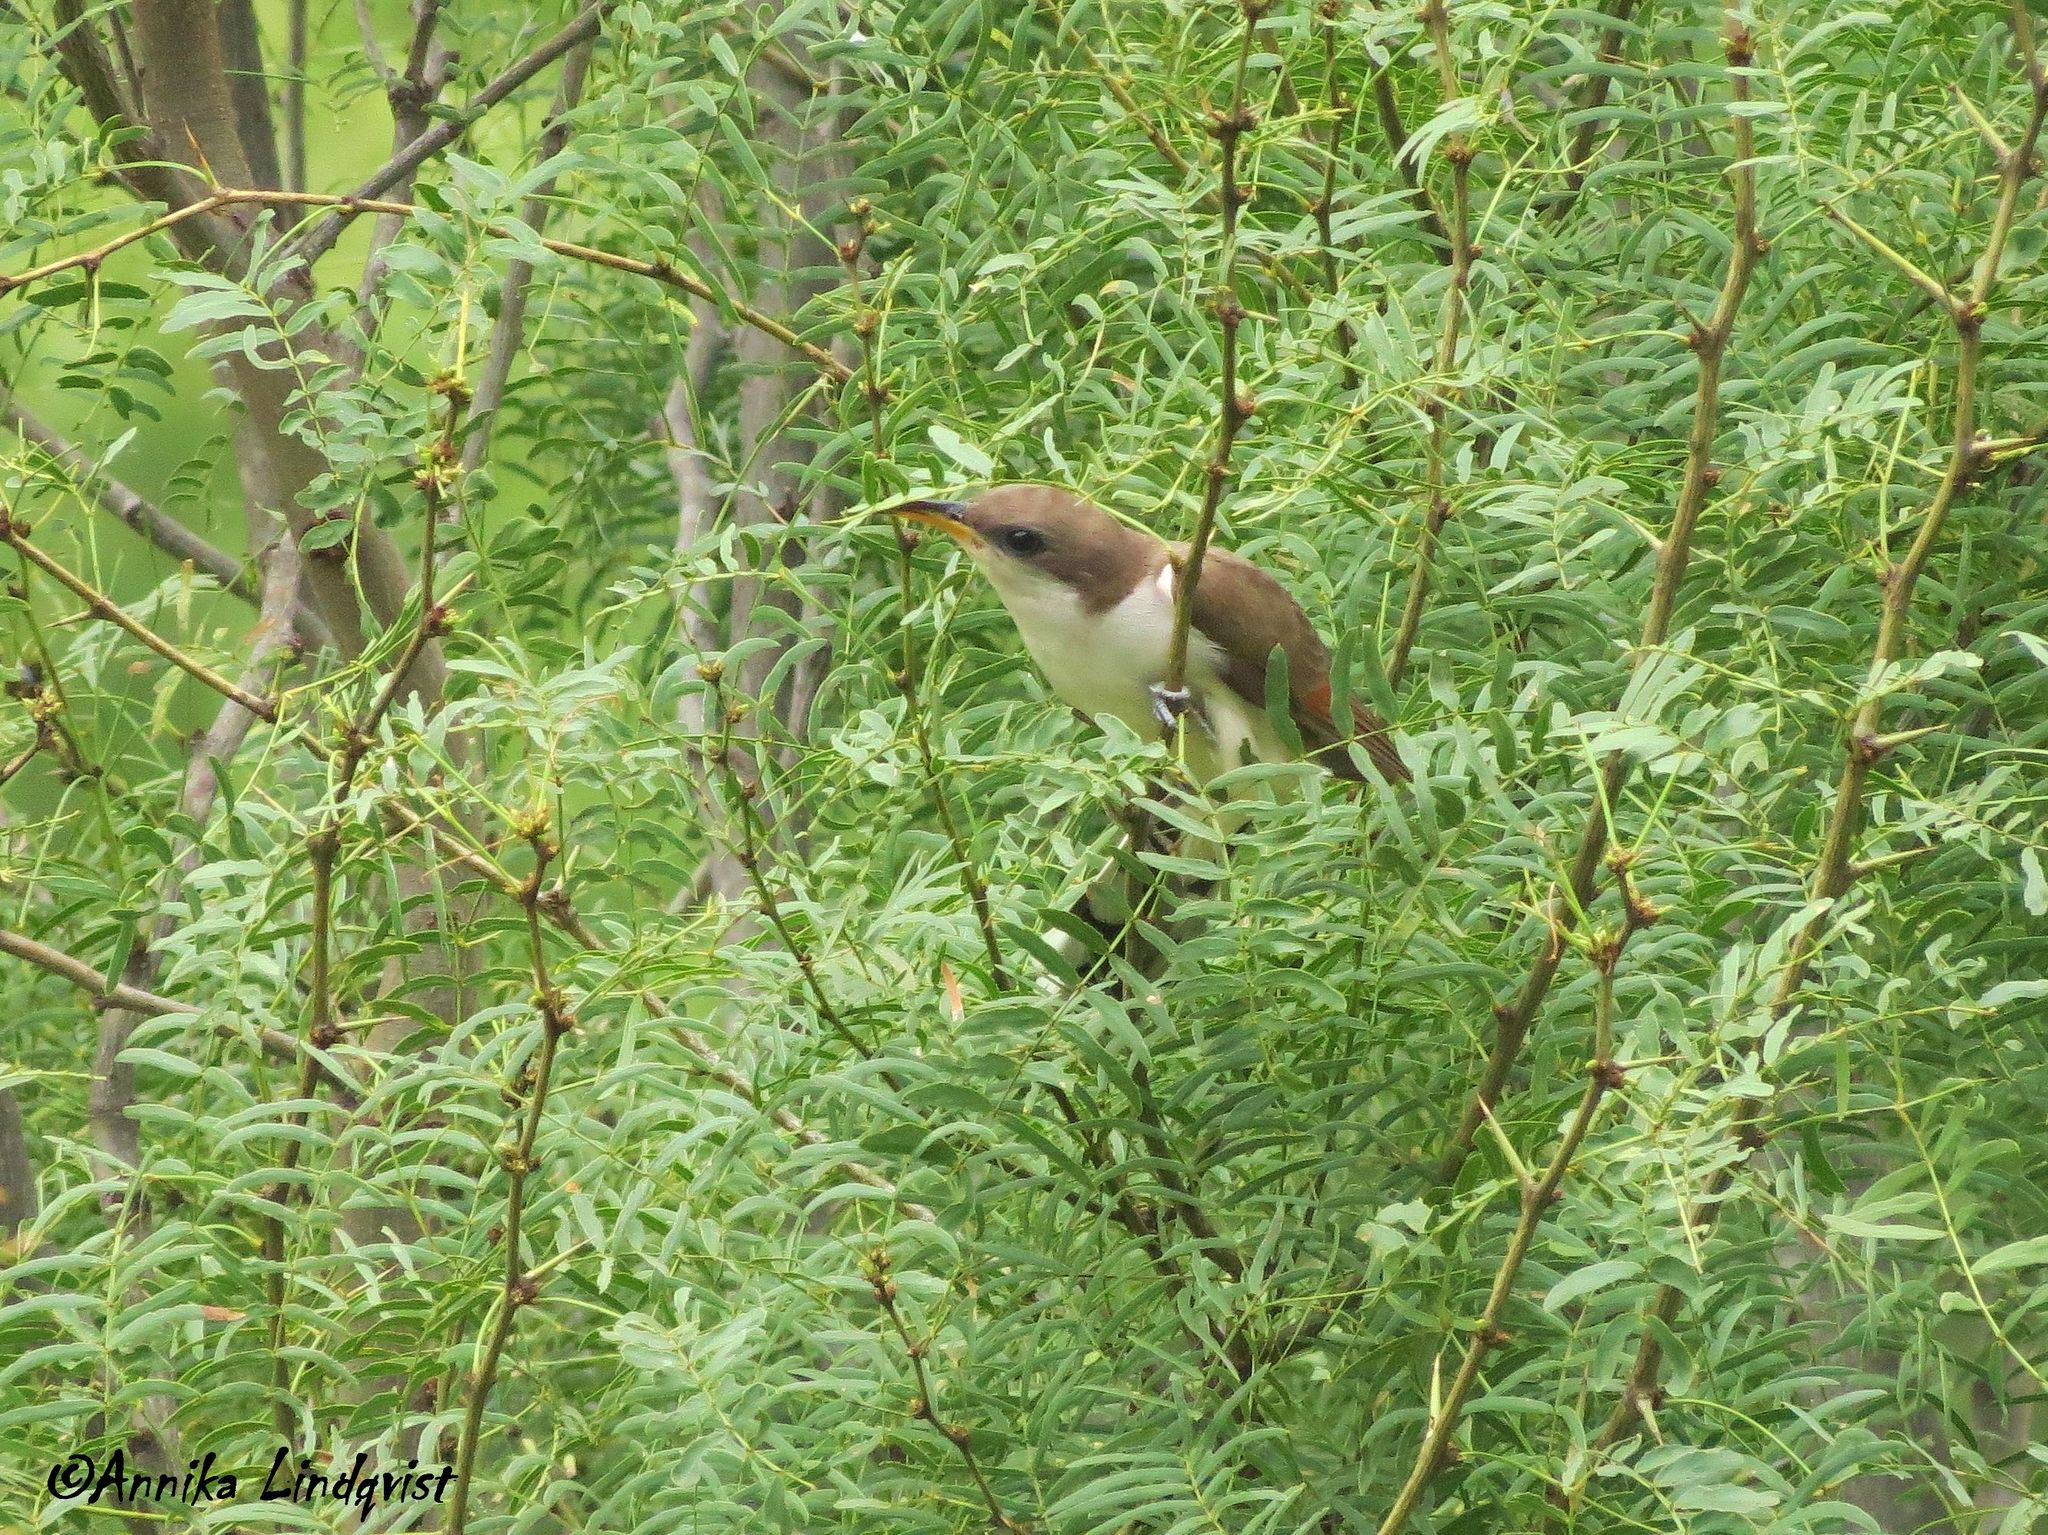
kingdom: Animalia
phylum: Chordata
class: Aves
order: Cuculiformes
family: Cuculidae
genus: Coccyzus
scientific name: Coccyzus americanus
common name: Yellow-billed cuckoo
